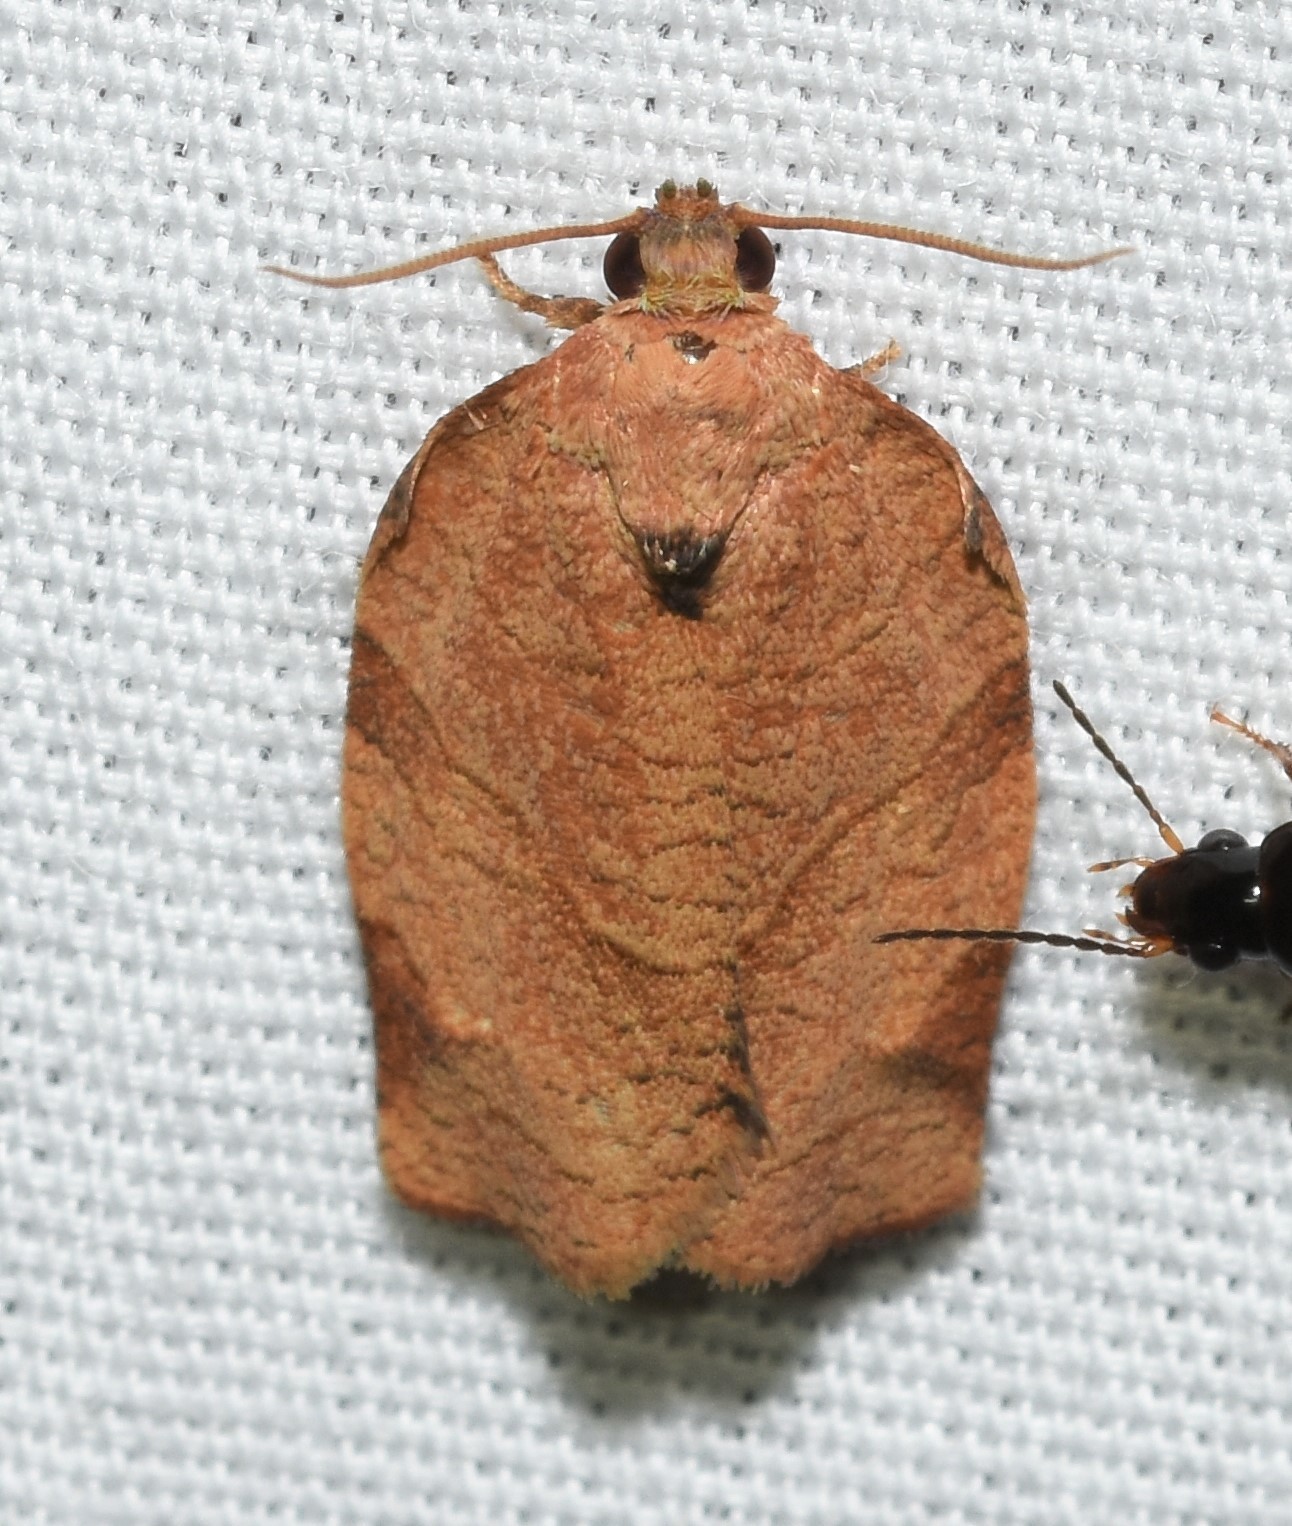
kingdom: Animalia
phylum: Arthropoda
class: Insecta
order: Lepidoptera
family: Tortricidae
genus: Choristoneura
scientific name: Choristoneura rosaceana
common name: Oblique-banded leafroller moth
